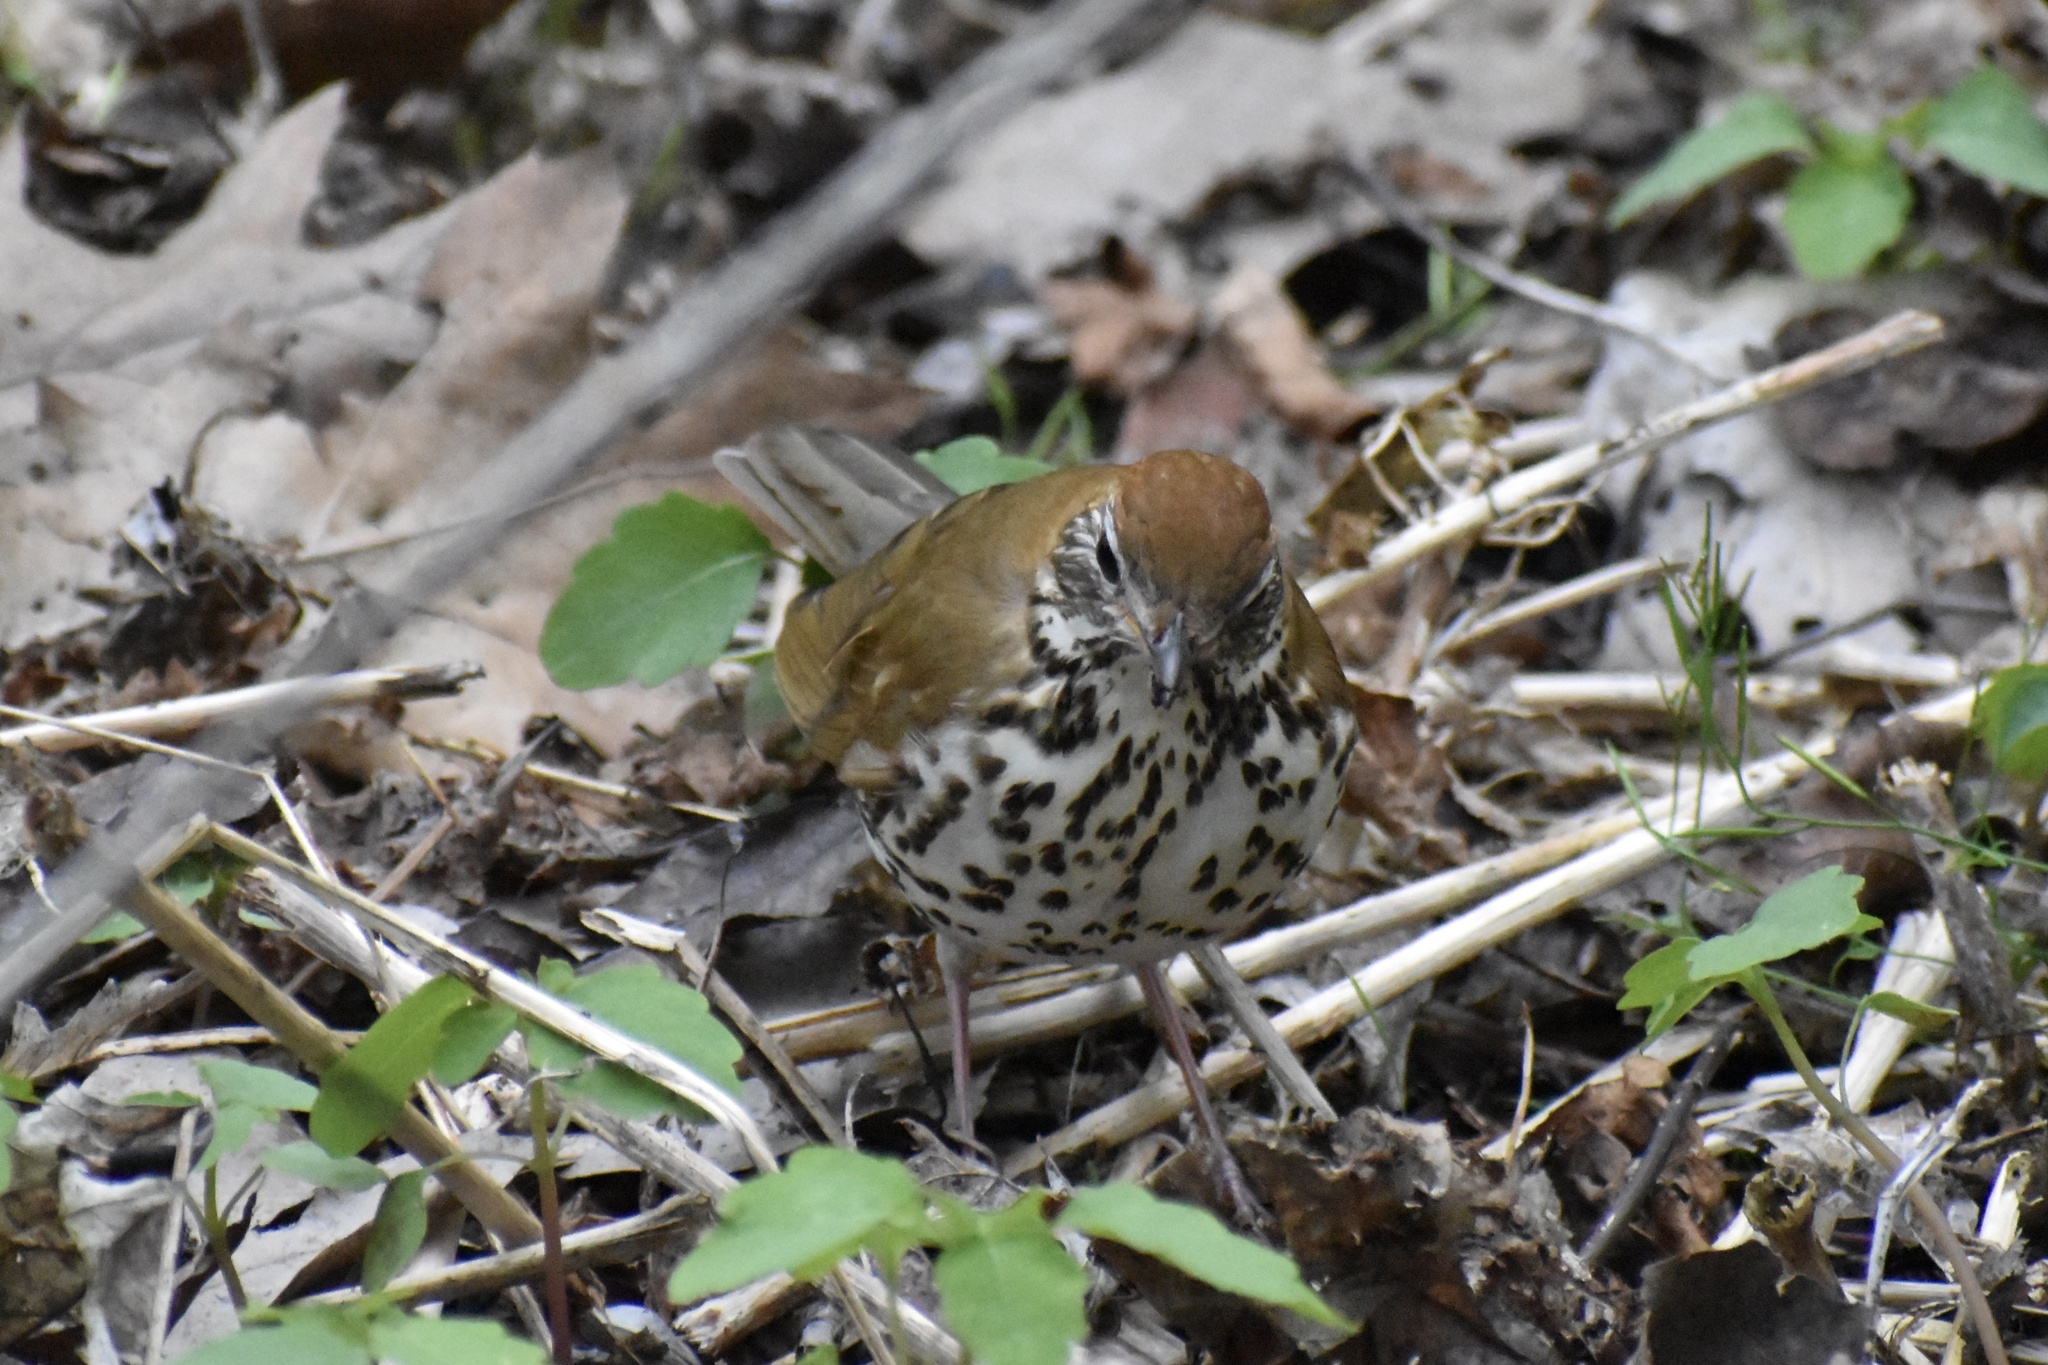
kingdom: Animalia
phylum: Chordata
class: Aves
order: Passeriformes
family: Turdidae
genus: Hylocichla
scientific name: Hylocichla mustelina
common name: Wood thrush
